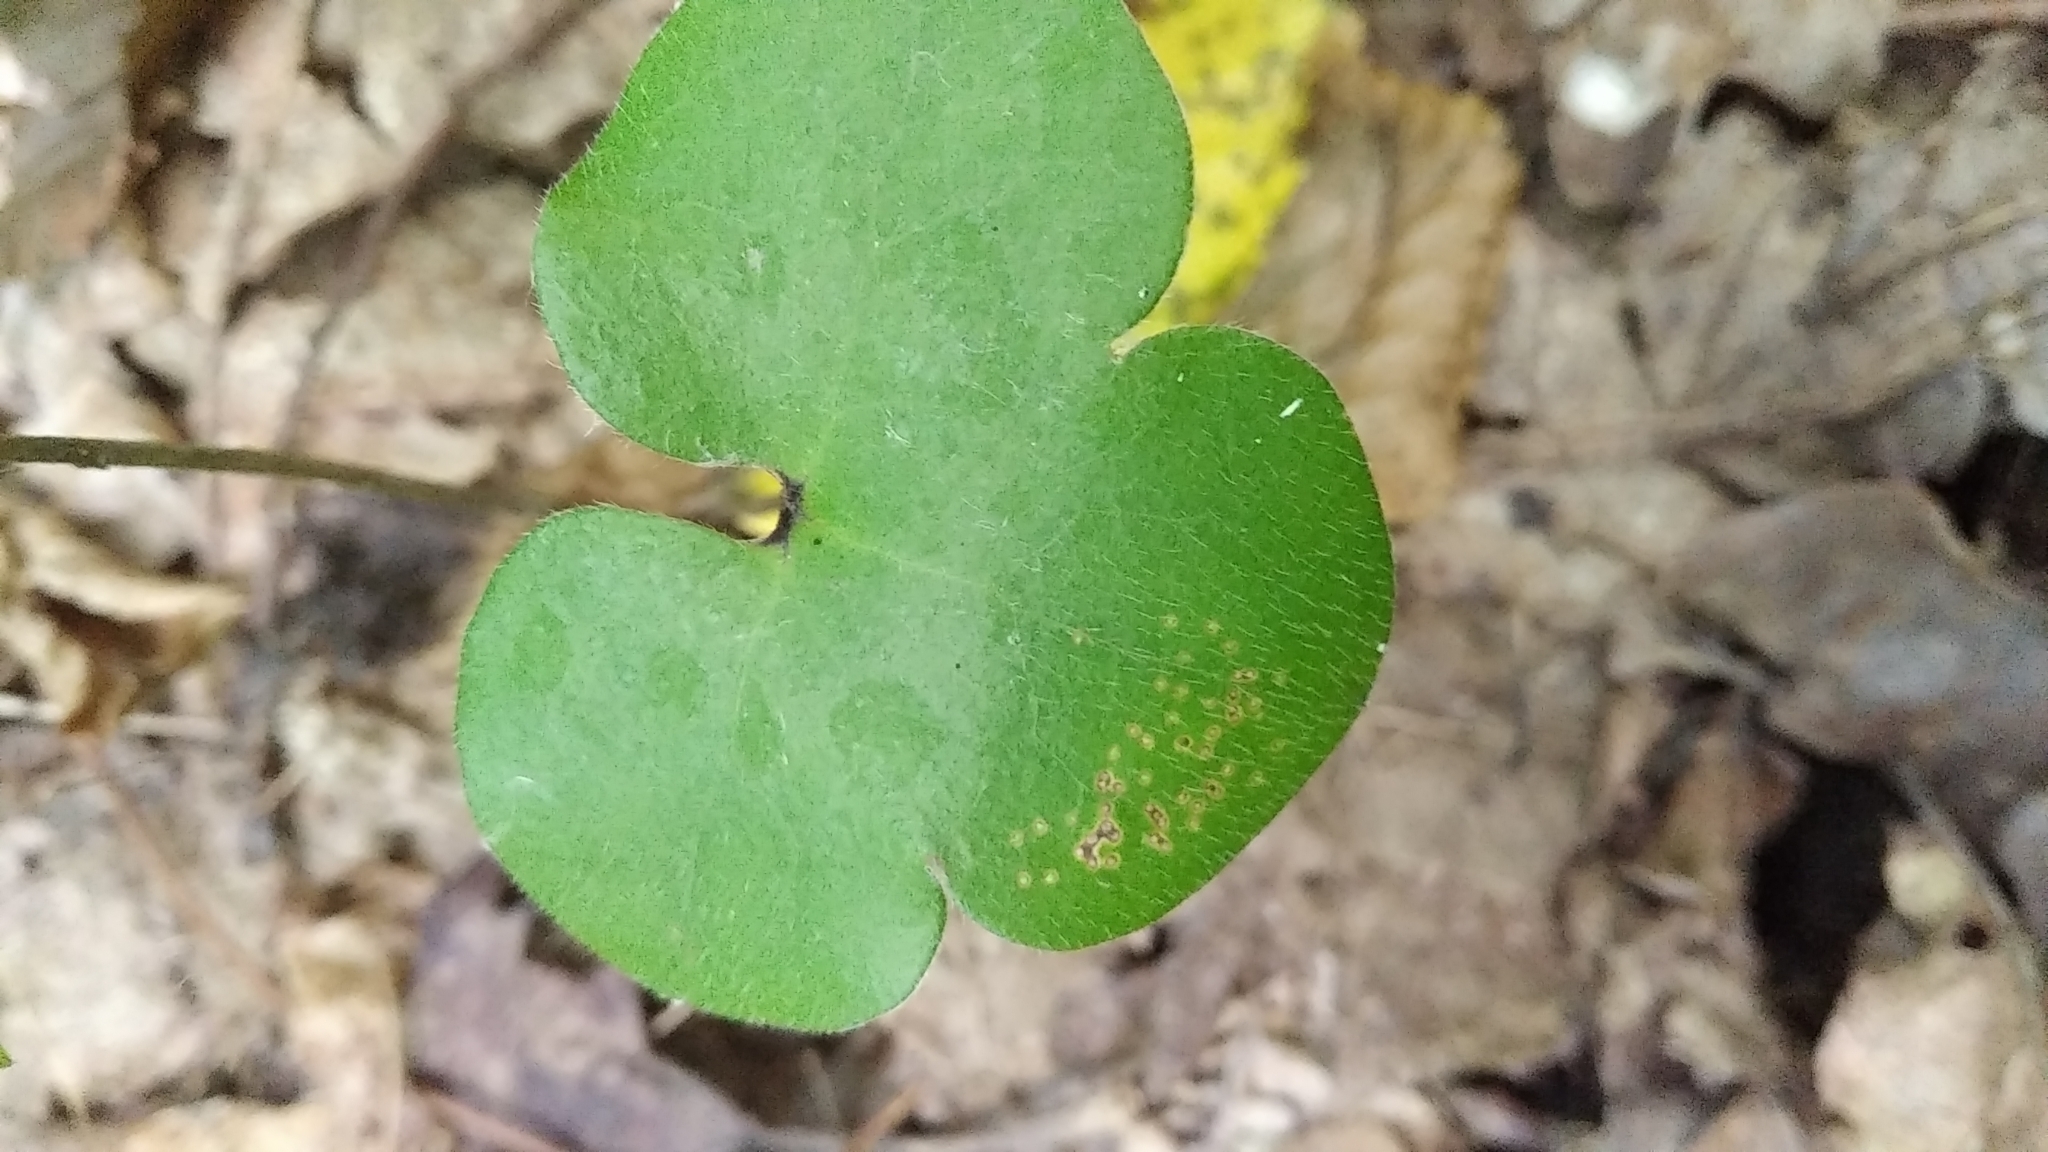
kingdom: Plantae
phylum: Tracheophyta
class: Magnoliopsida
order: Ranunculales
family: Ranunculaceae
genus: Hepatica
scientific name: Hepatica nobilis
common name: Liverleaf
